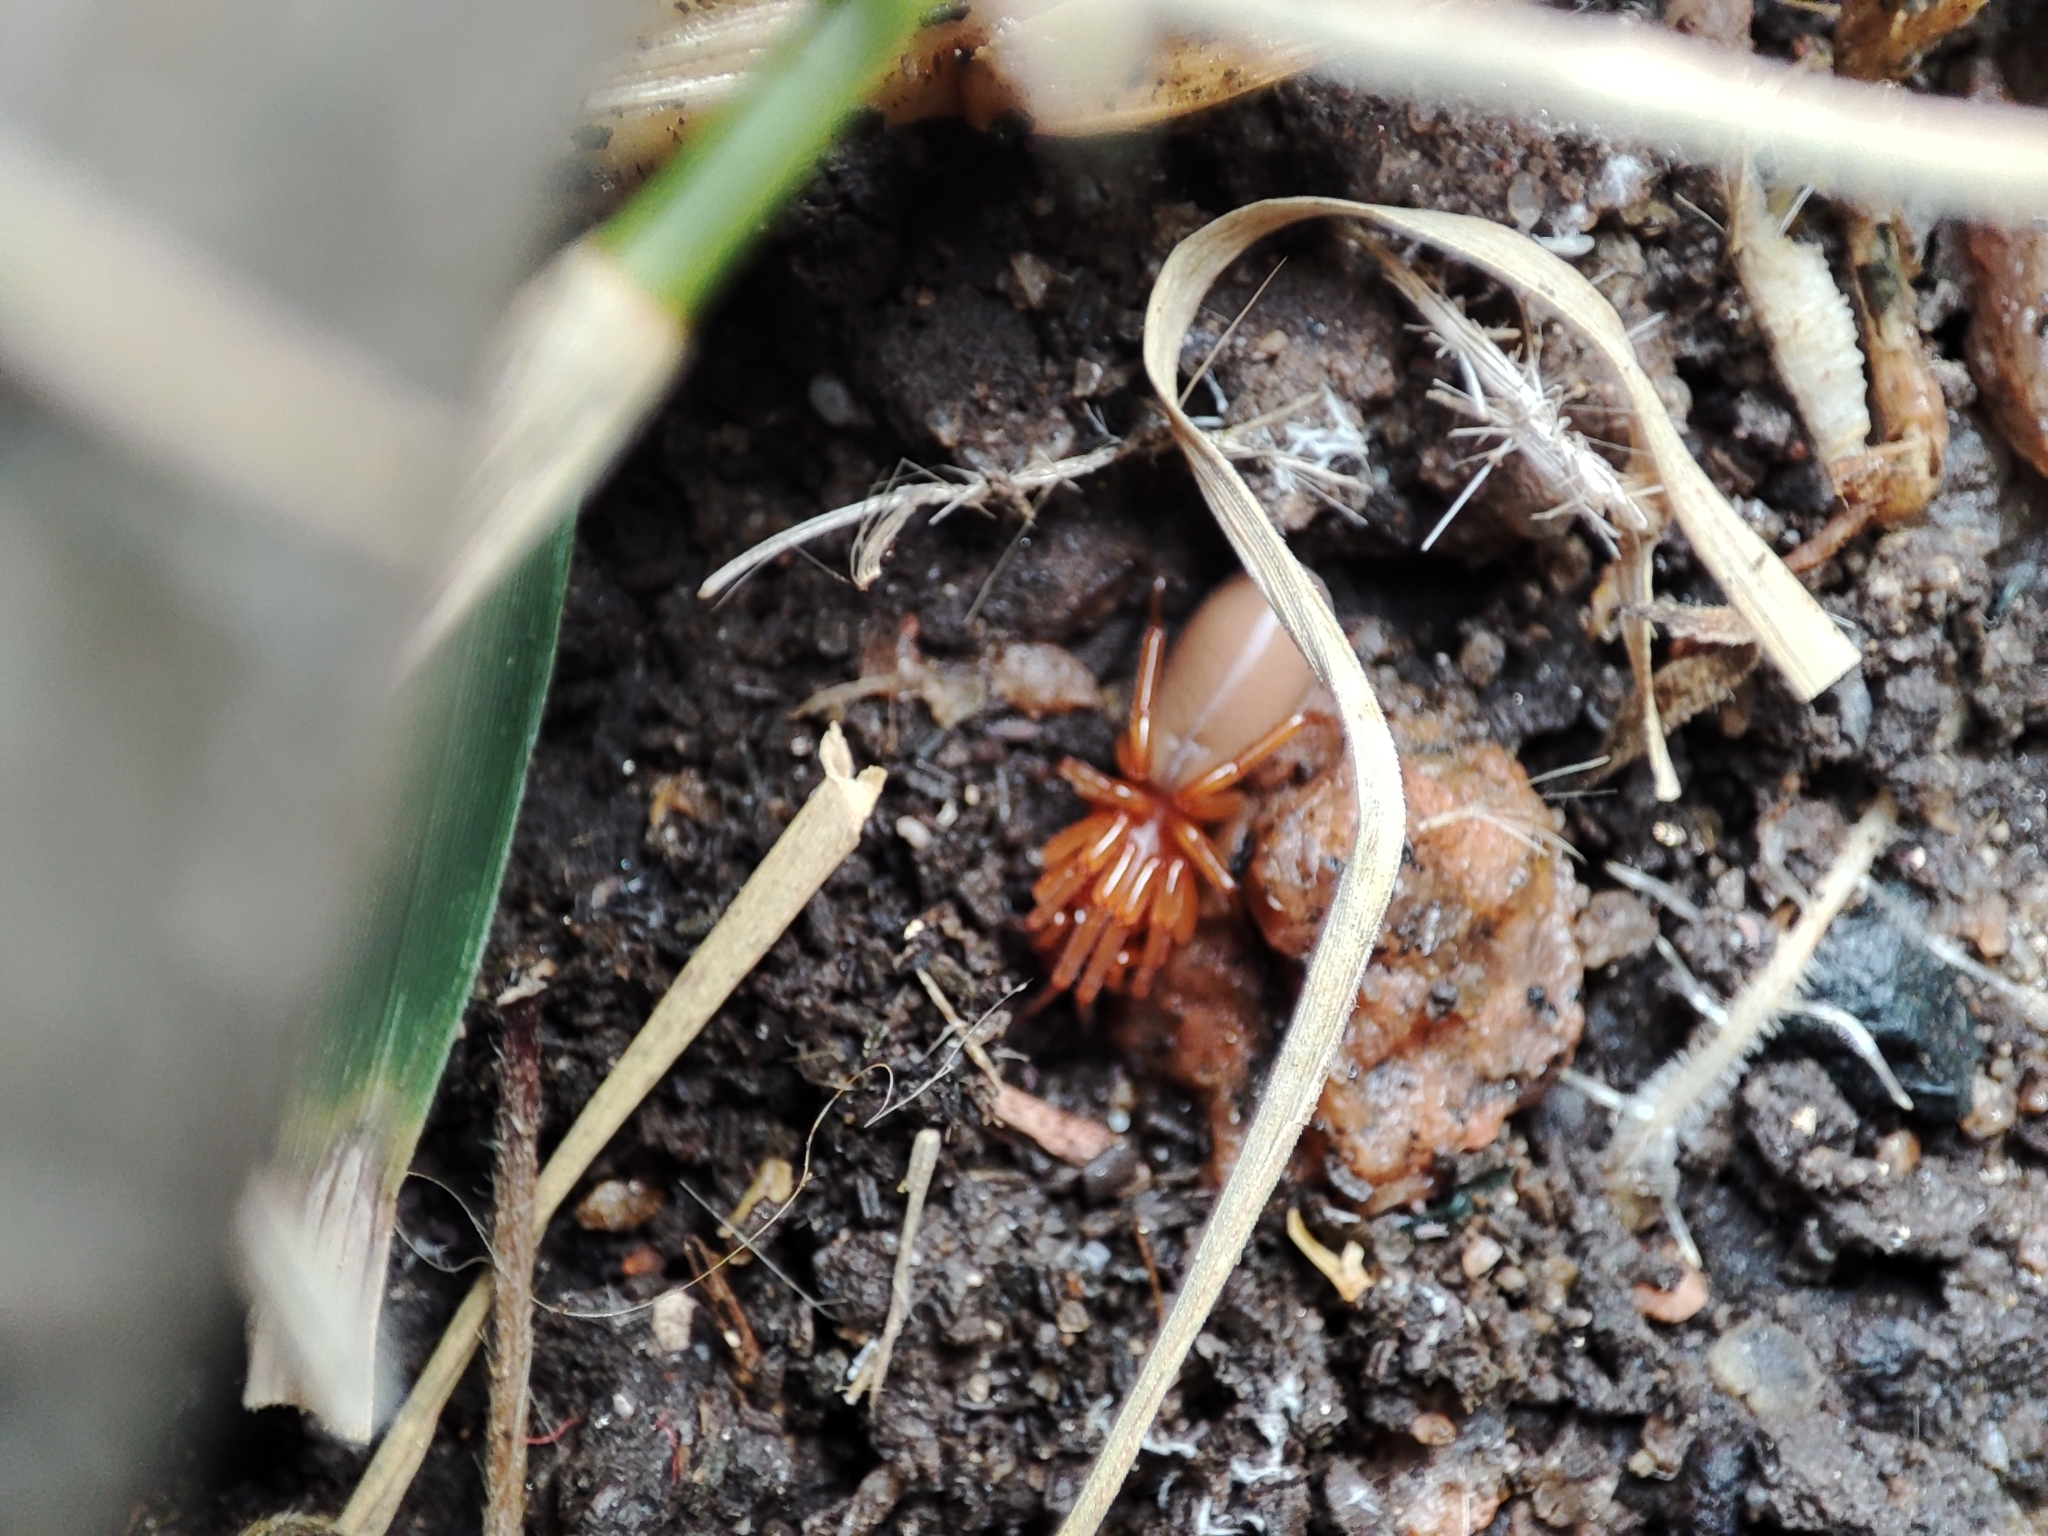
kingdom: Animalia
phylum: Arthropoda
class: Arachnida
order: Araneae
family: Dysderidae
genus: Dysdera
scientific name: Dysdera crocata
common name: Woodlouse spider
